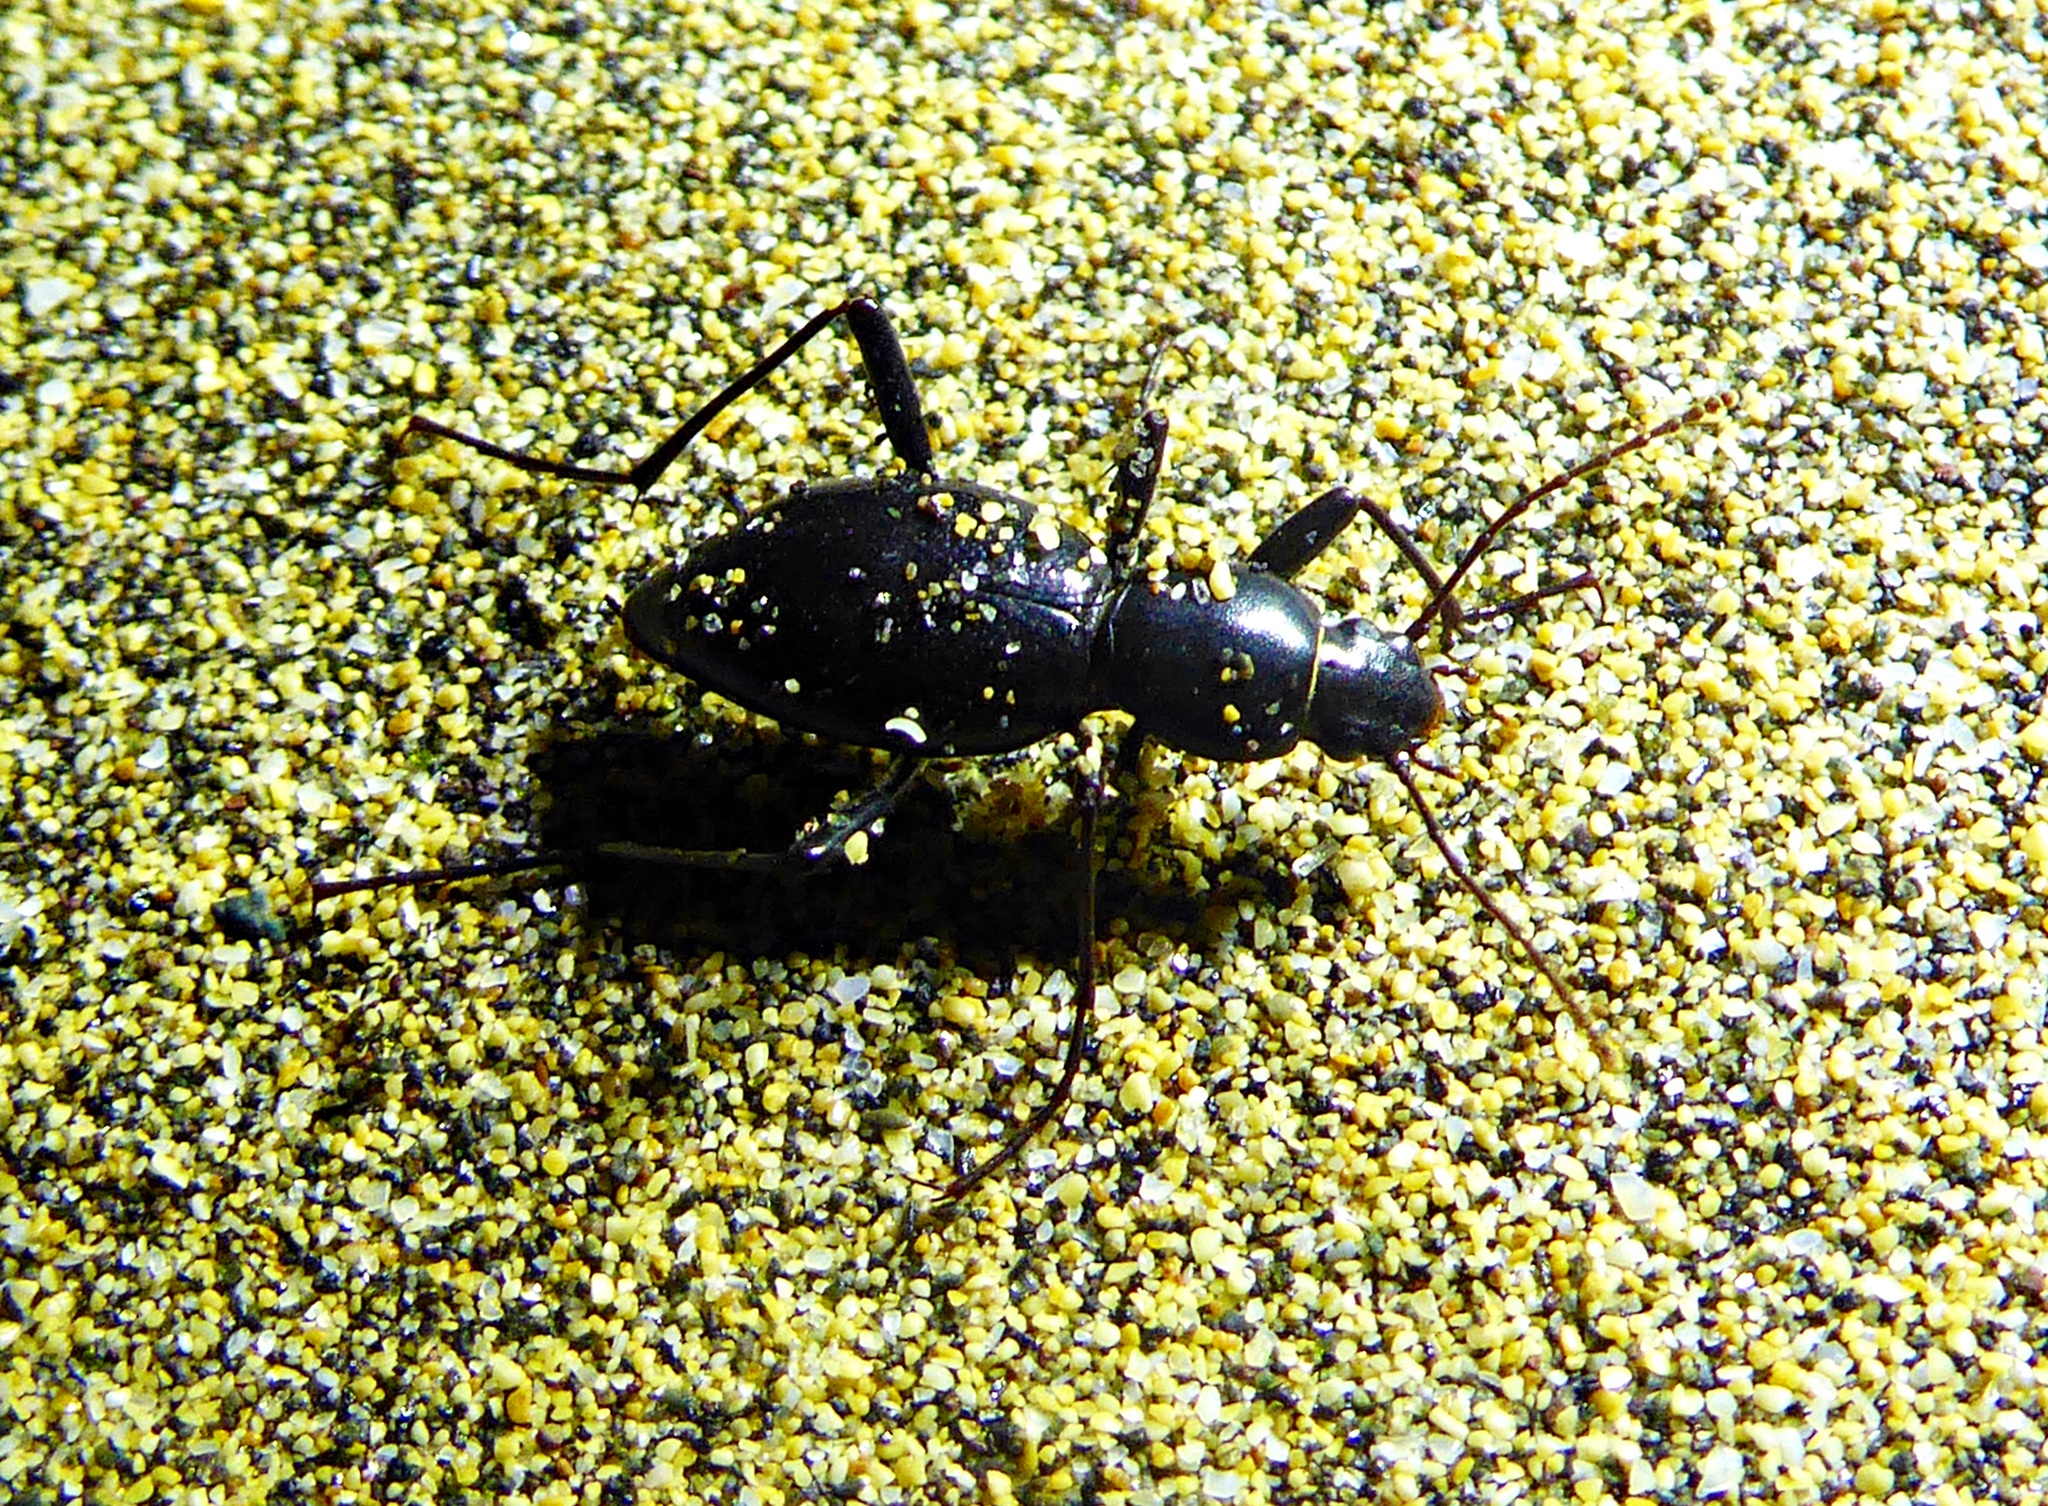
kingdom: Animalia
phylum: Arthropoda
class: Insecta
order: Coleoptera
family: Tenebrionidae
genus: Eulipus
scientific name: Eulipus elongatus
